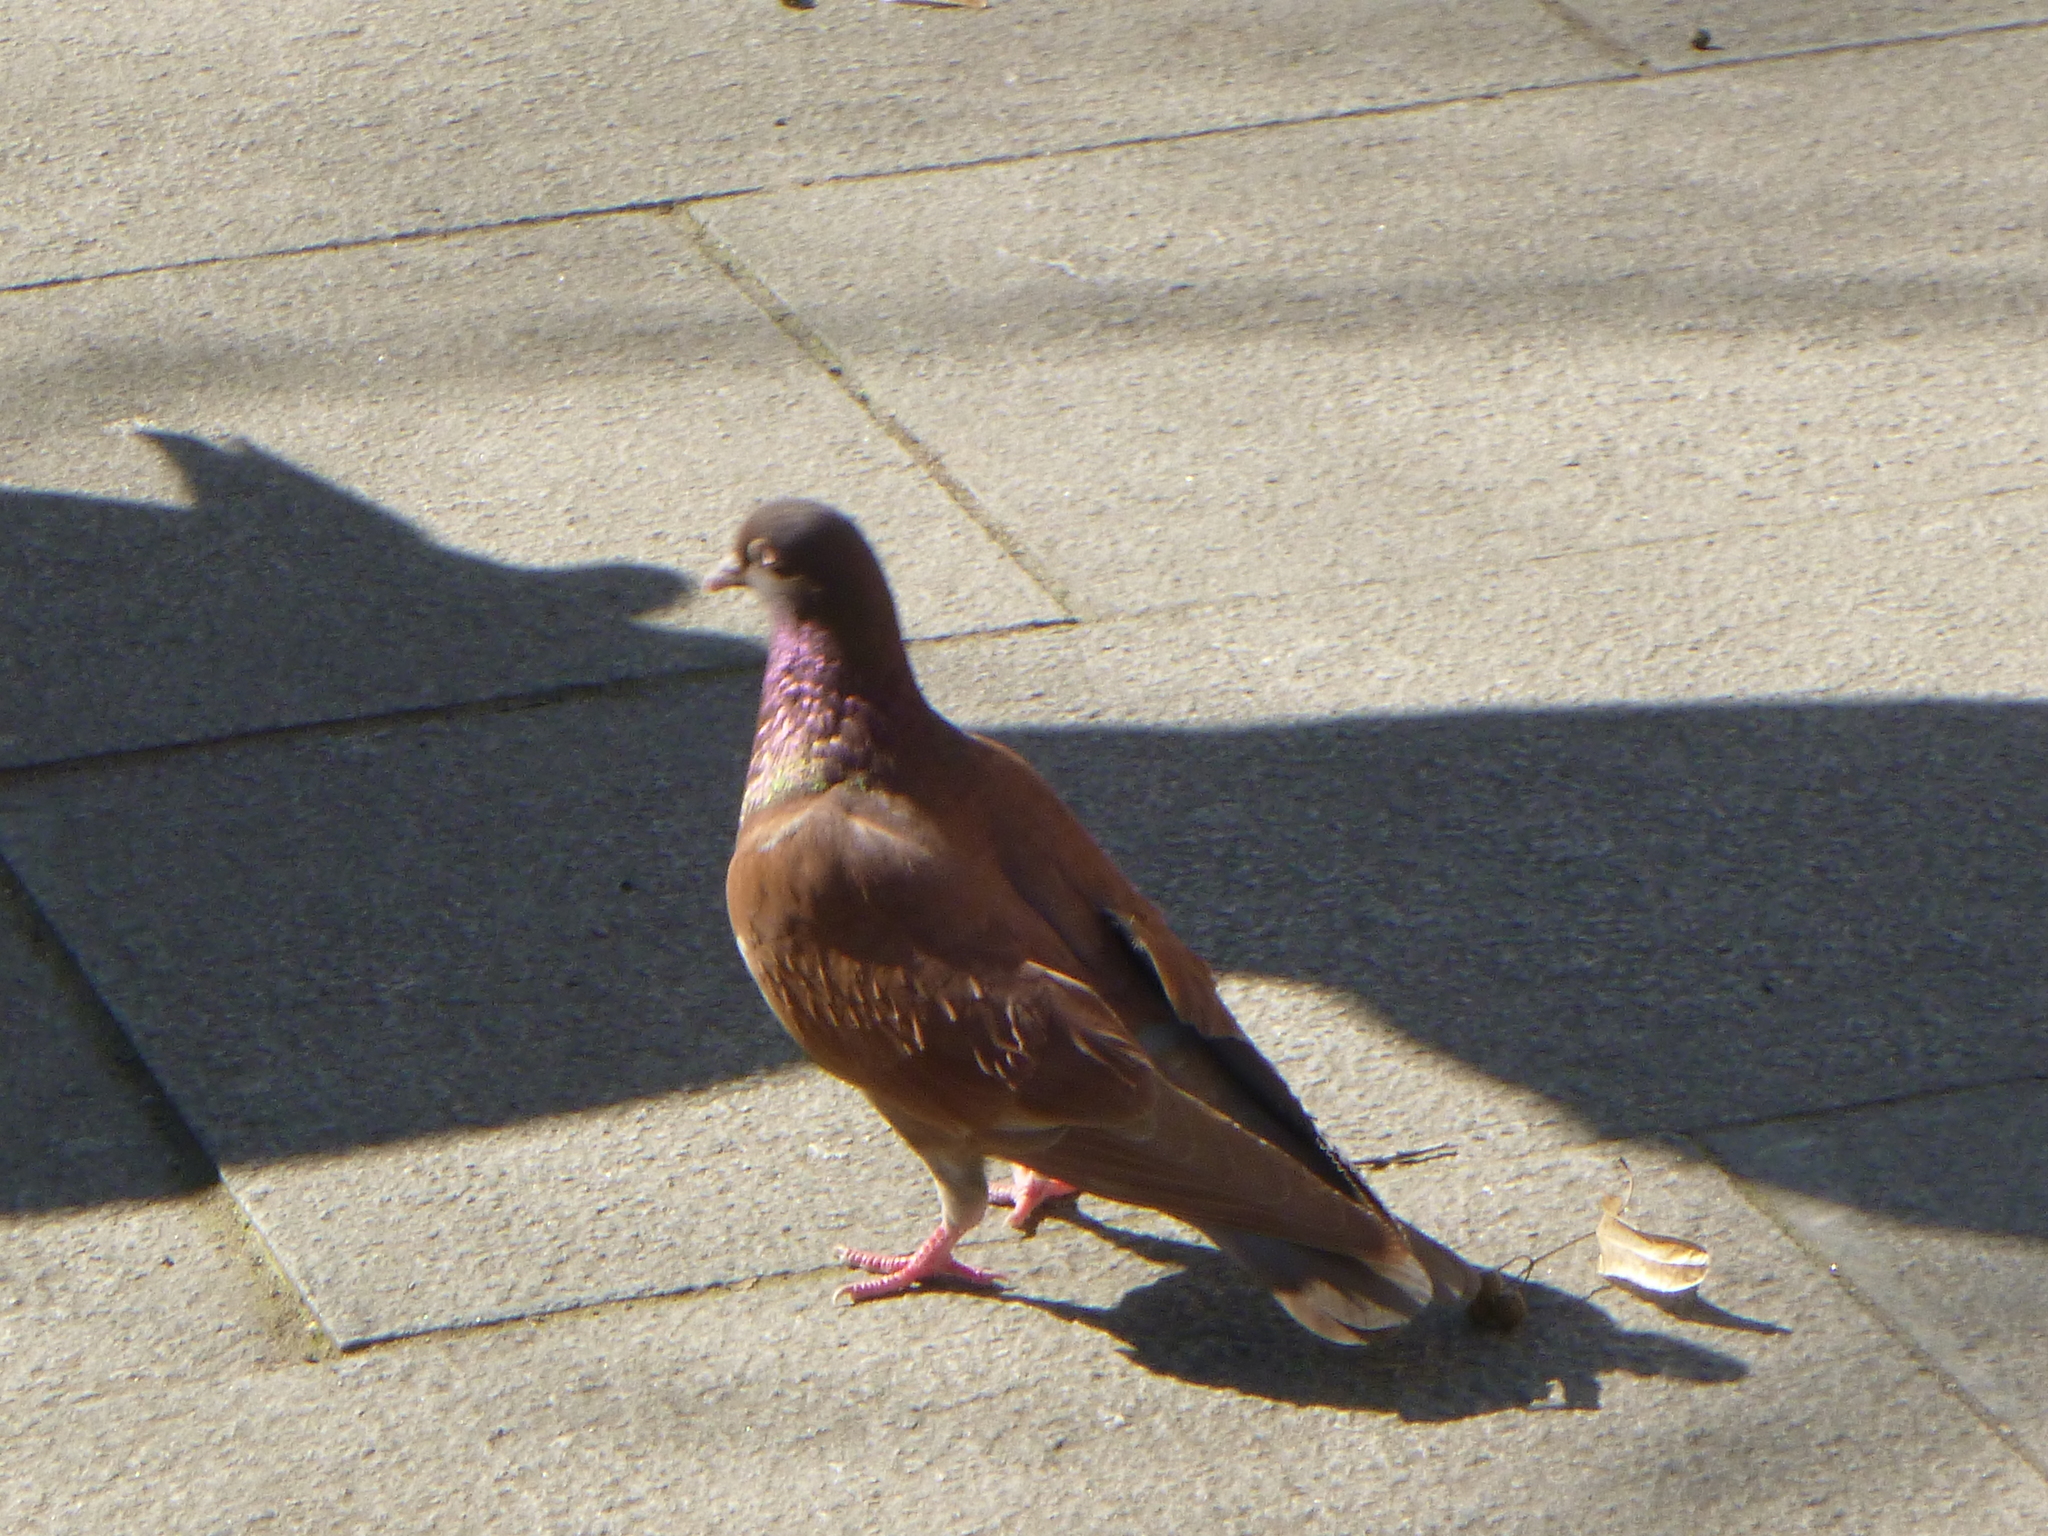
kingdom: Animalia
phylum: Chordata
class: Aves
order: Columbiformes
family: Columbidae
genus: Columba
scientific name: Columba livia
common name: Rock pigeon
